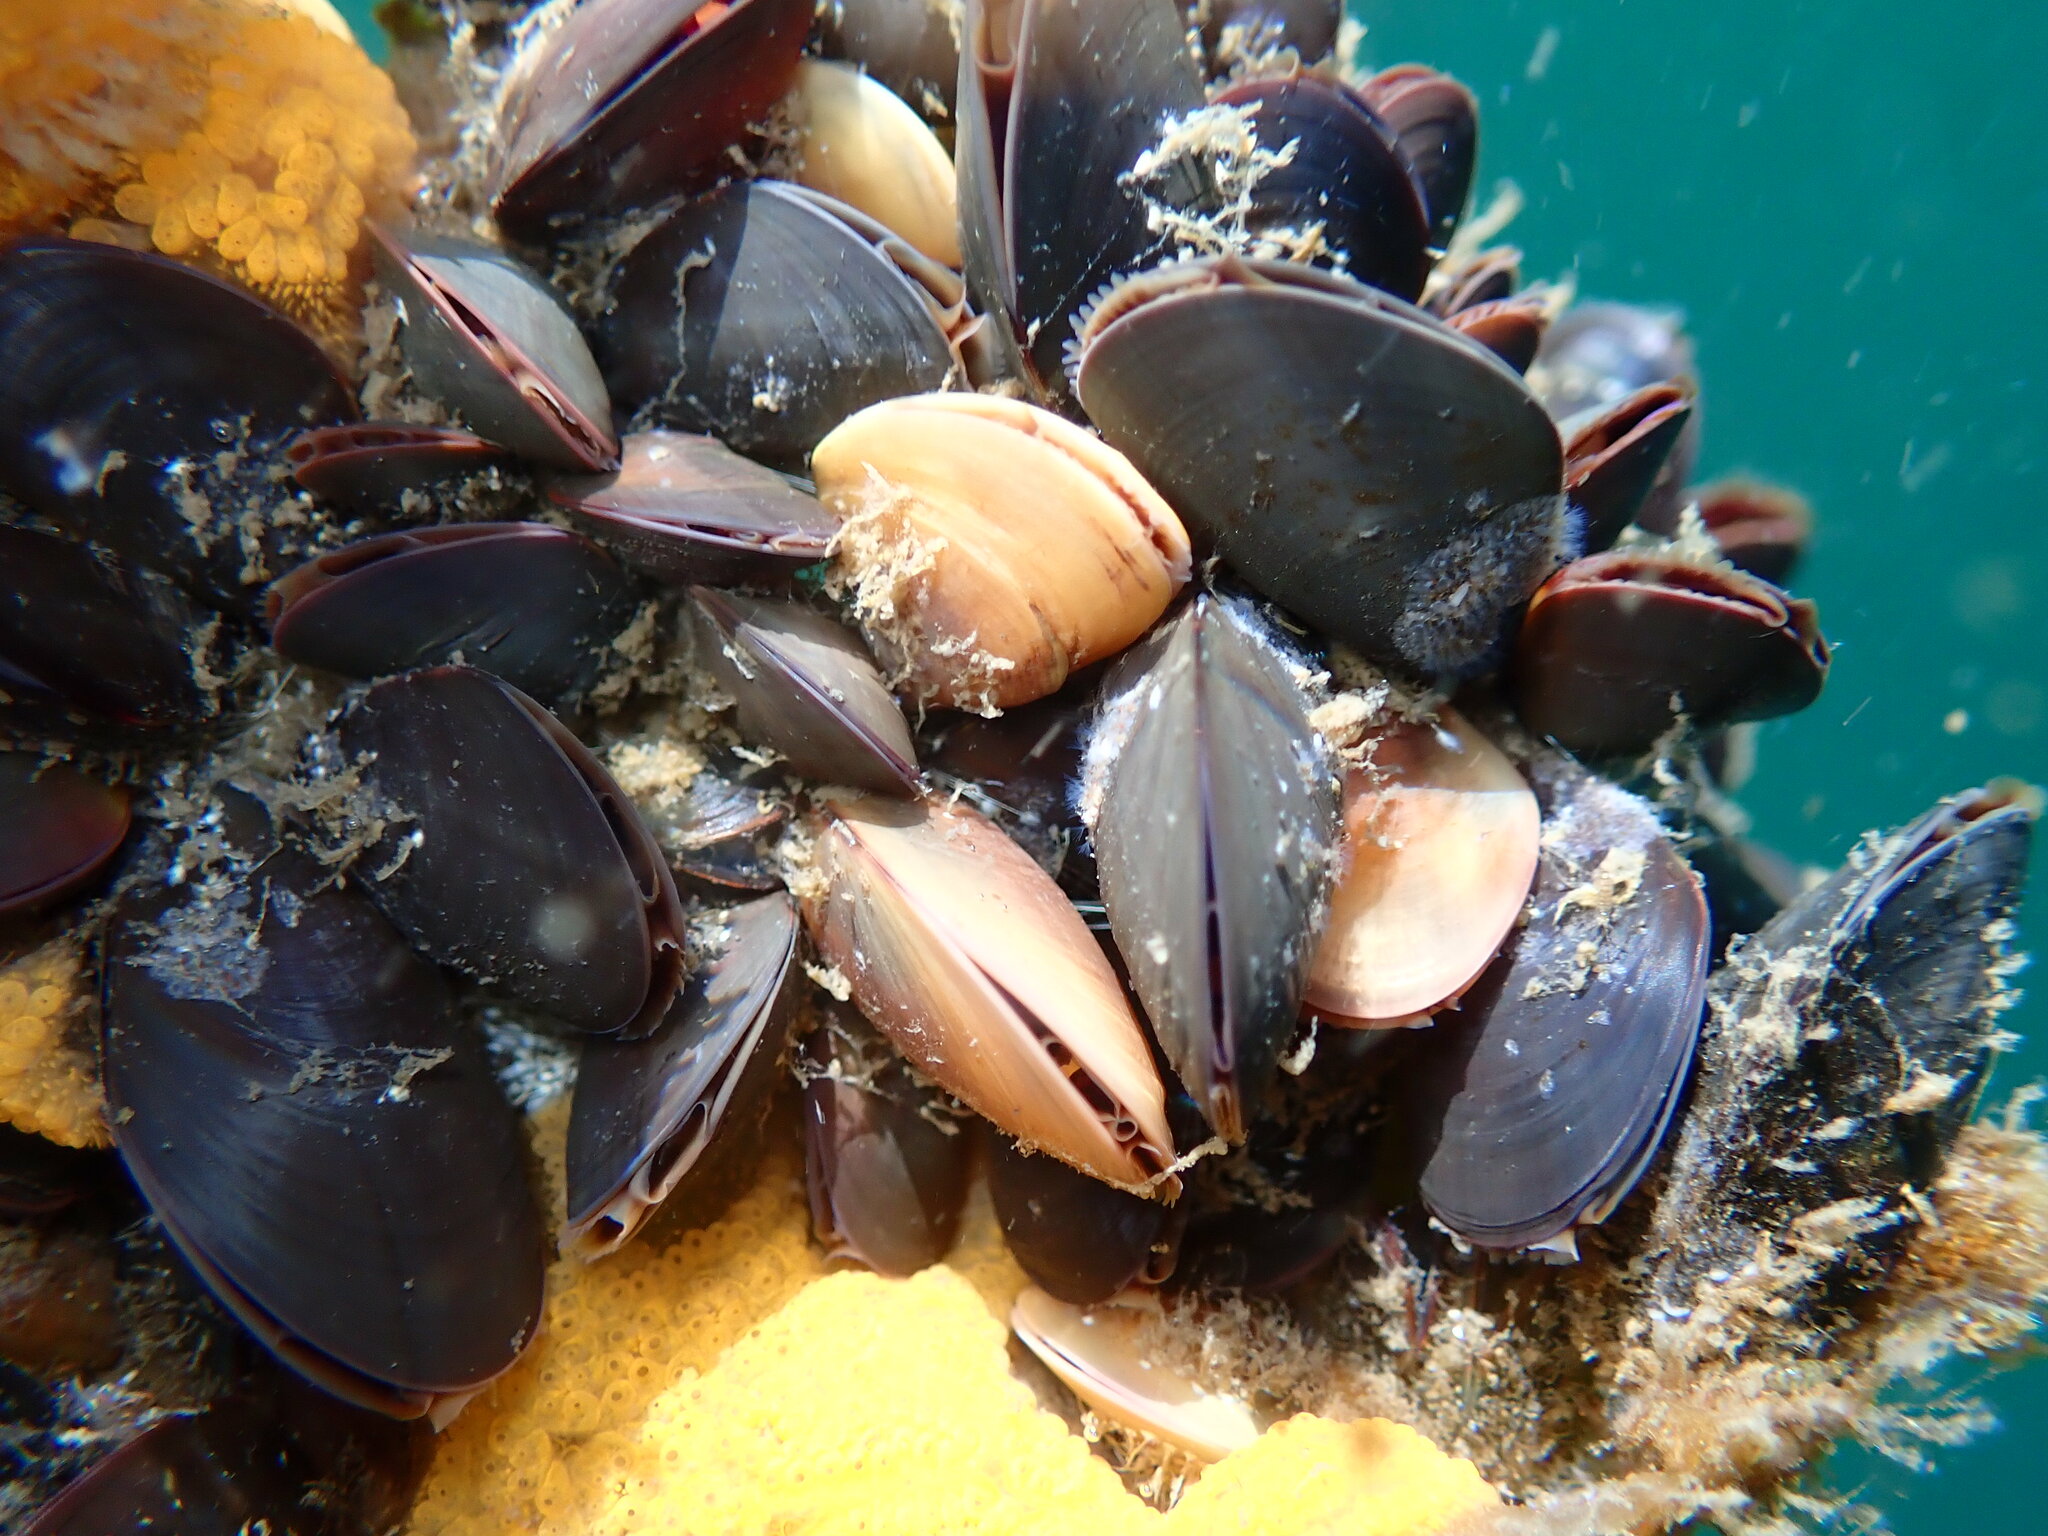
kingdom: Animalia
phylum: Mollusca
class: Bivalvia
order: Mytilida
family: Mytilidae
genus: Mytilus
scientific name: Mytilus
